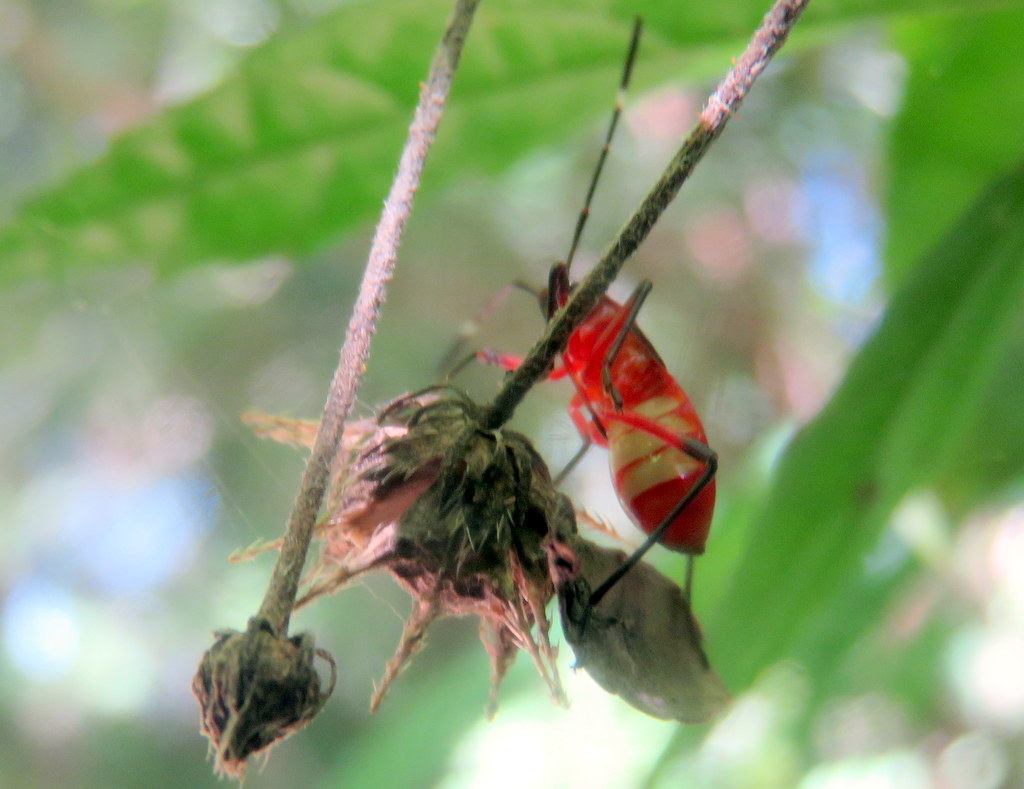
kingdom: Animalia
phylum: Arthropoda
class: Insecta
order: Hemiptera
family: Pyrrhocoridae
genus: Dysdercus
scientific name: Dysdercus albofasciatus
